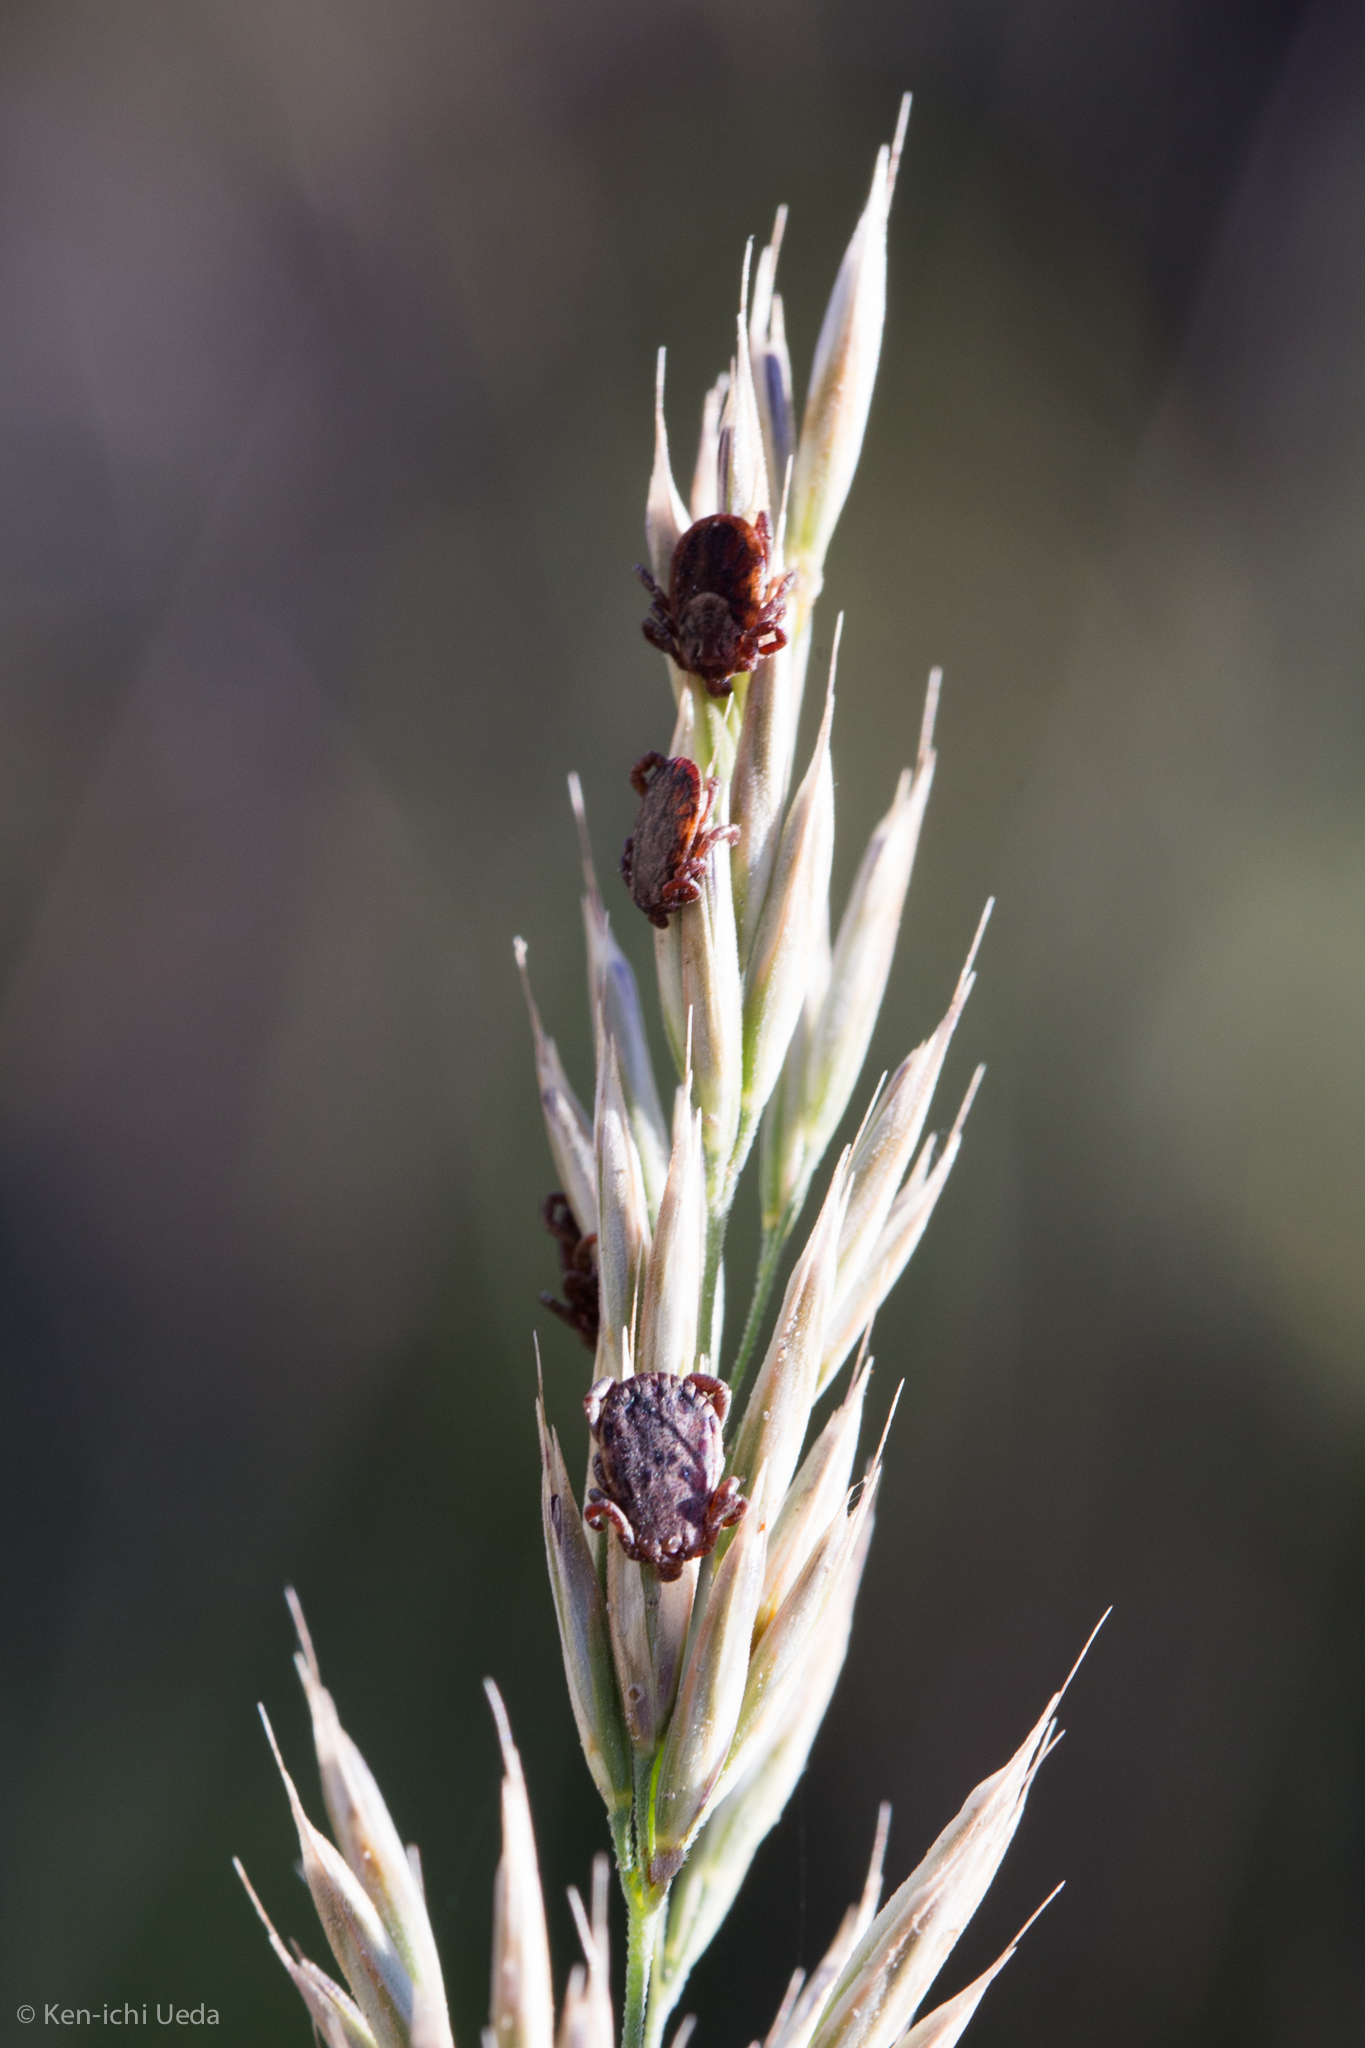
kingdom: Animalia
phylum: Arthropoda
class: Arachnida
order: Ixodida
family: Ixodidae
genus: Dermacentor
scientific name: Dermacentor occidentalis
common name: Net tick
